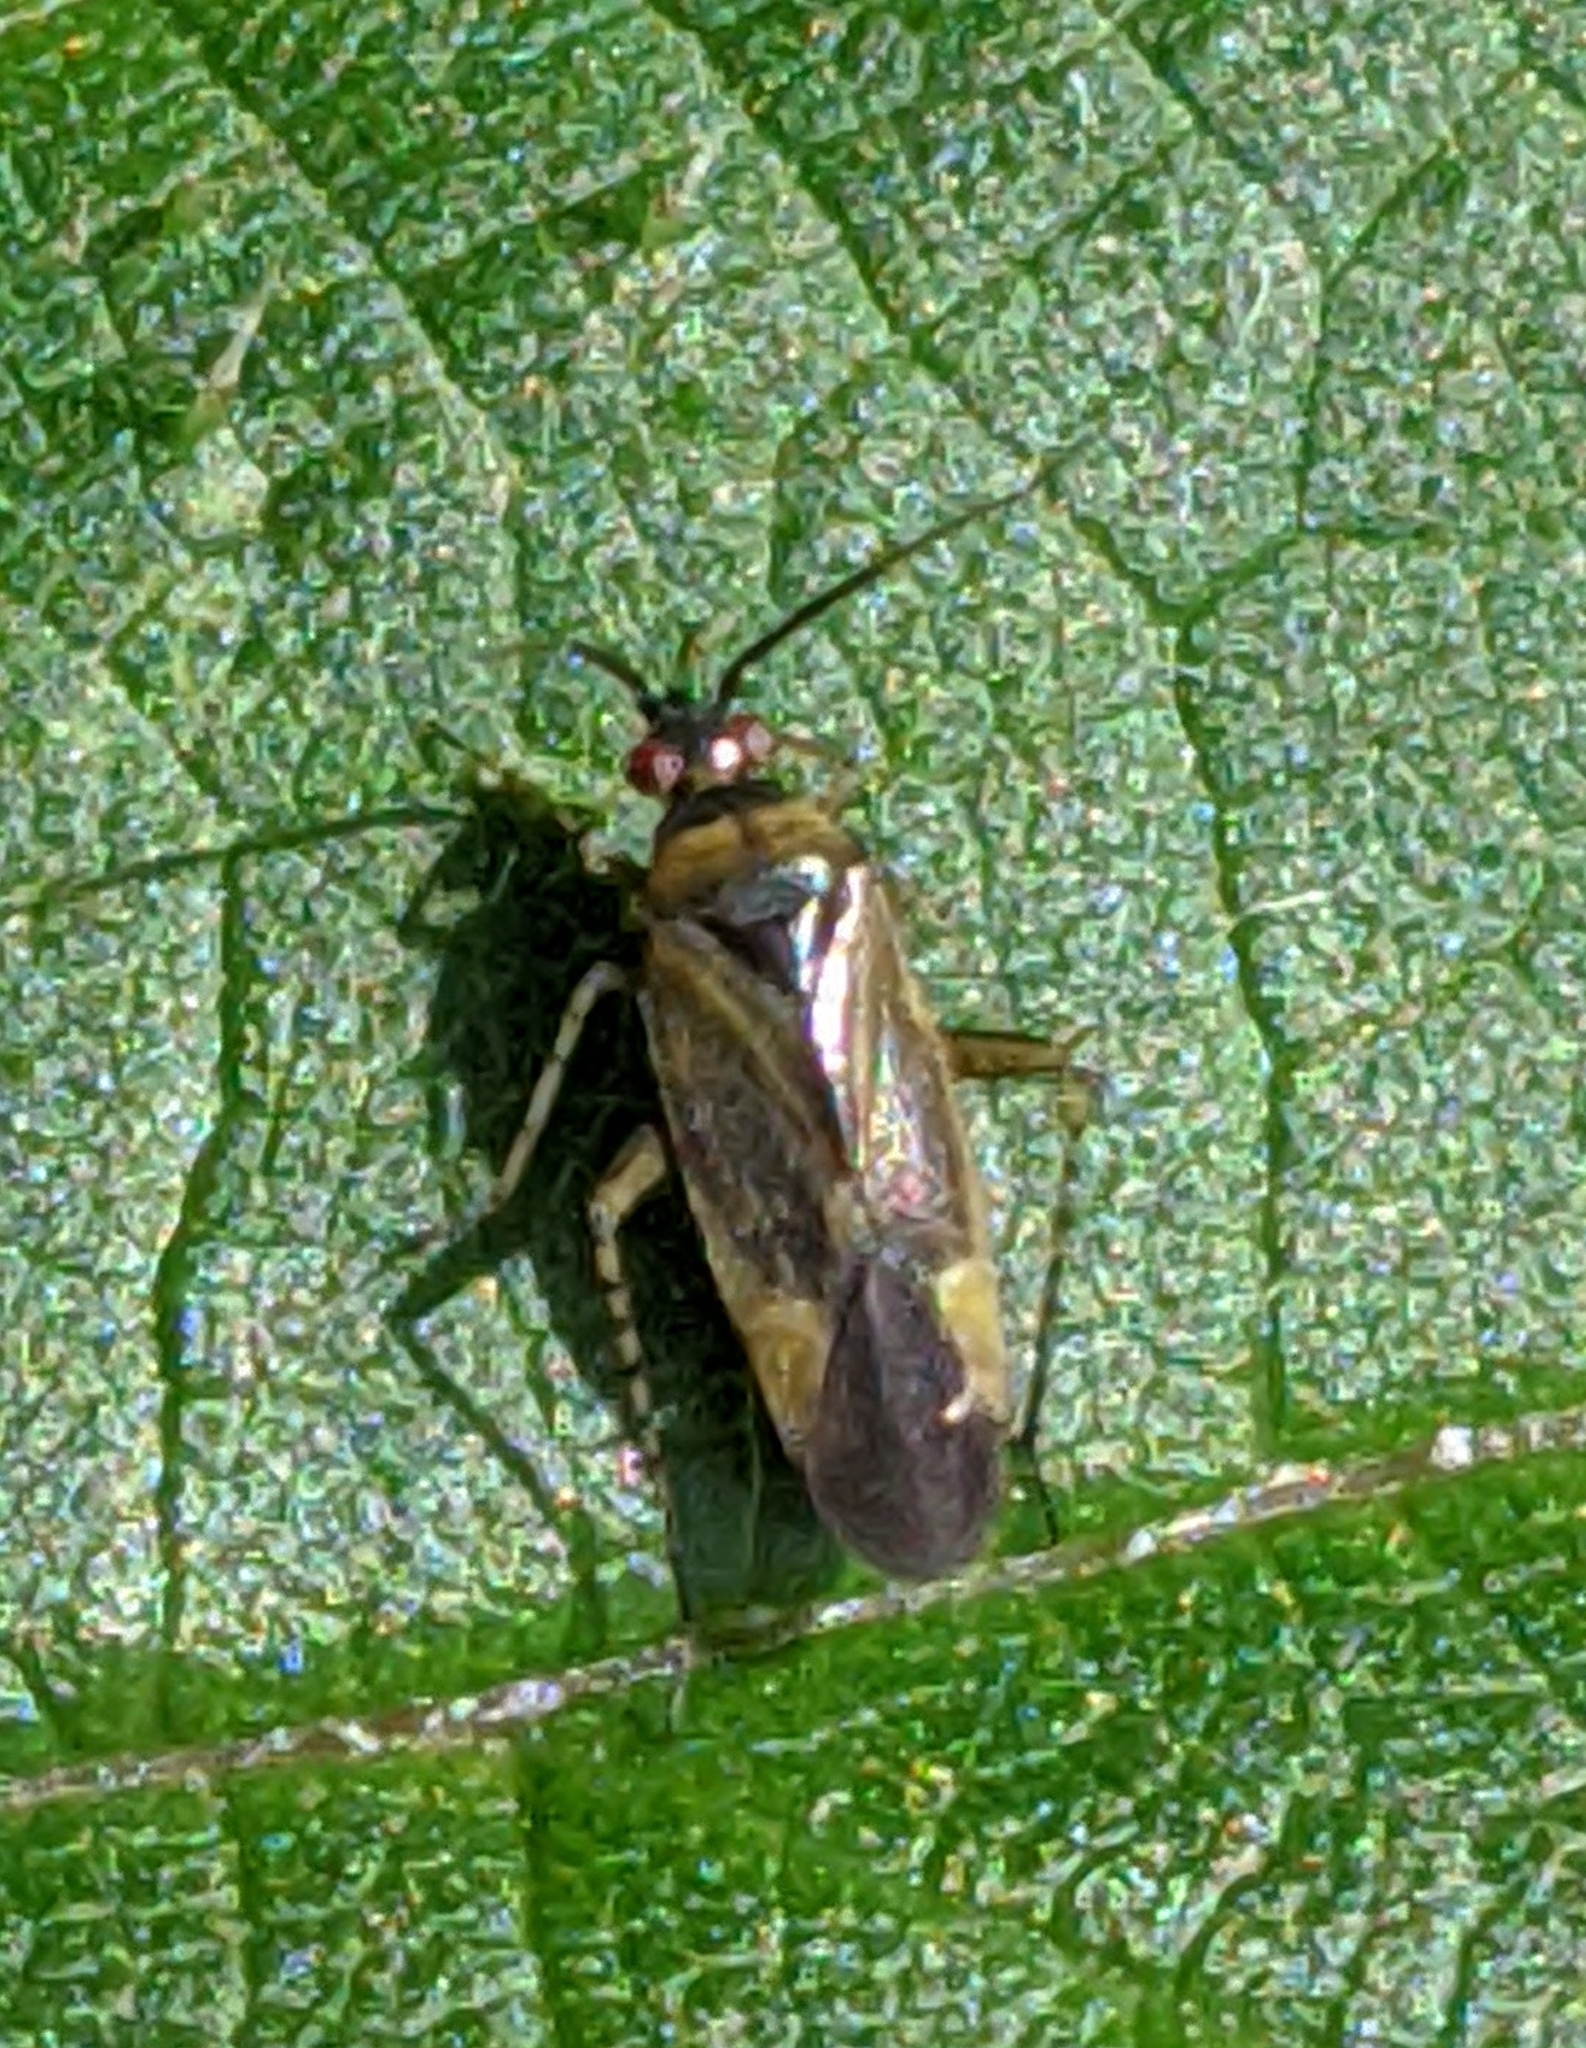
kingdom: Animalia
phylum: Arthropoda
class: Insecta
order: Hemiptera
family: Miridae
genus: Plagiognathus
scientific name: Plagiognathus arbustorum
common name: Plant bug
